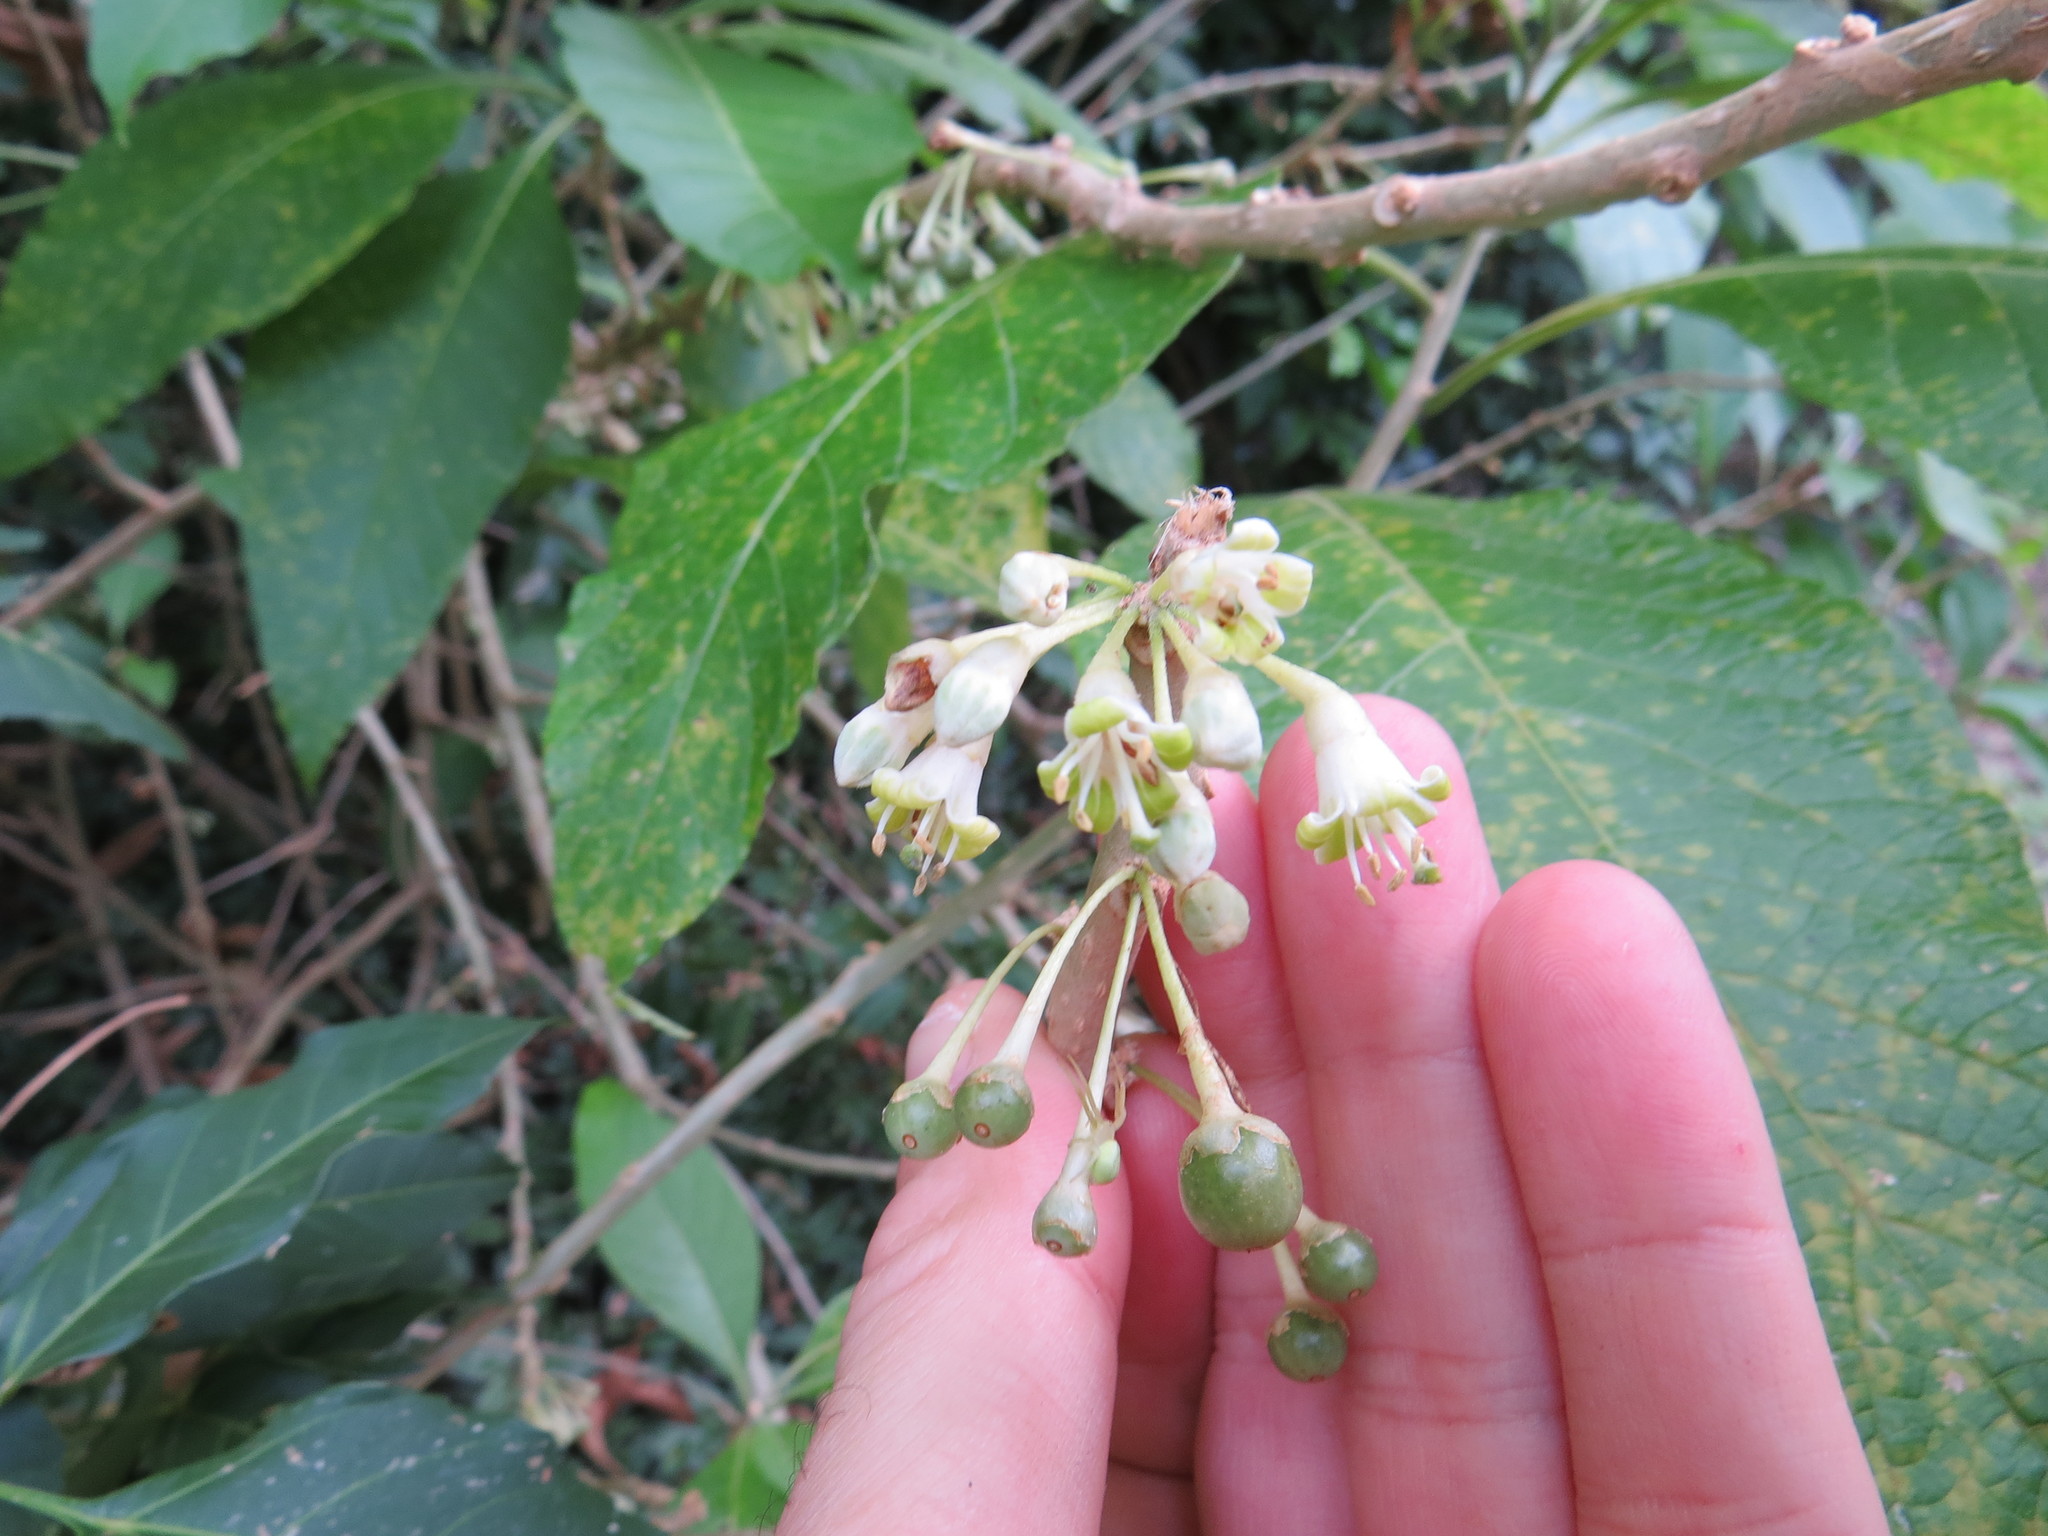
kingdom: Plantae
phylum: Tracheophyta
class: Magnoliopsida
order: Solanales
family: Solanaceae
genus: Iochroma
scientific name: Iochroma arborescens
